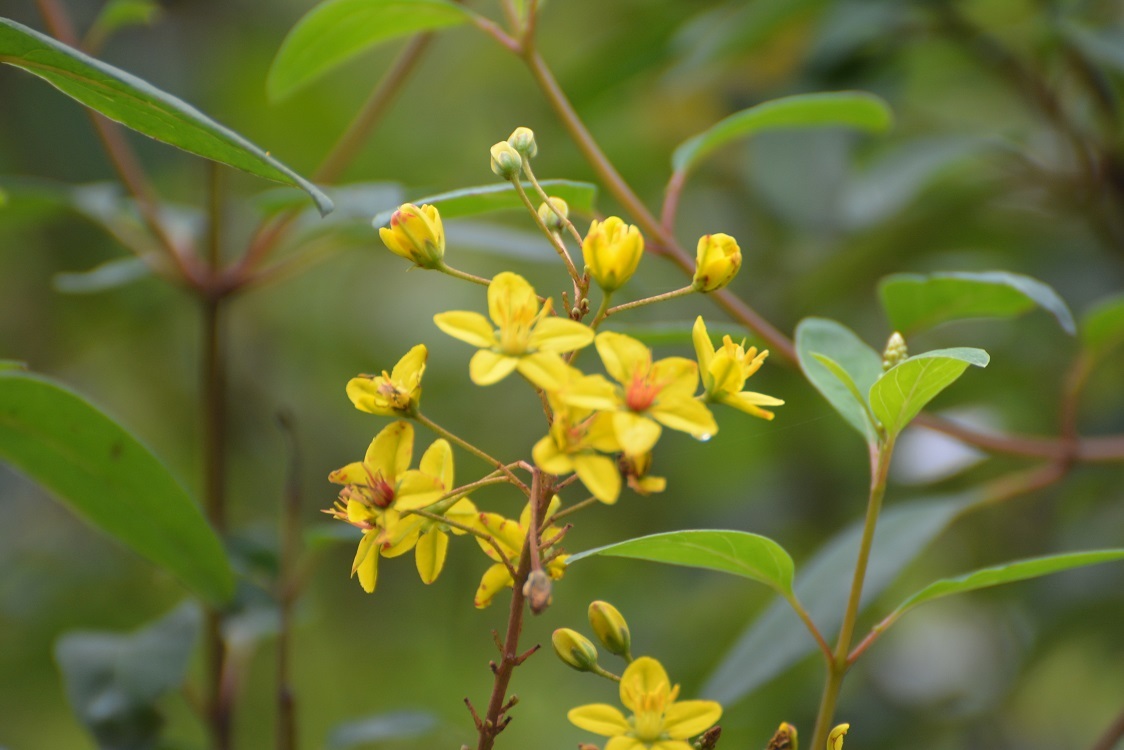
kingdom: Plantae
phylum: Tracheophyta
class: Magnoliopsida
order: Malpighiales
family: Malpighiaceae
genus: Galphimia
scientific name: Galphimia speciosa
